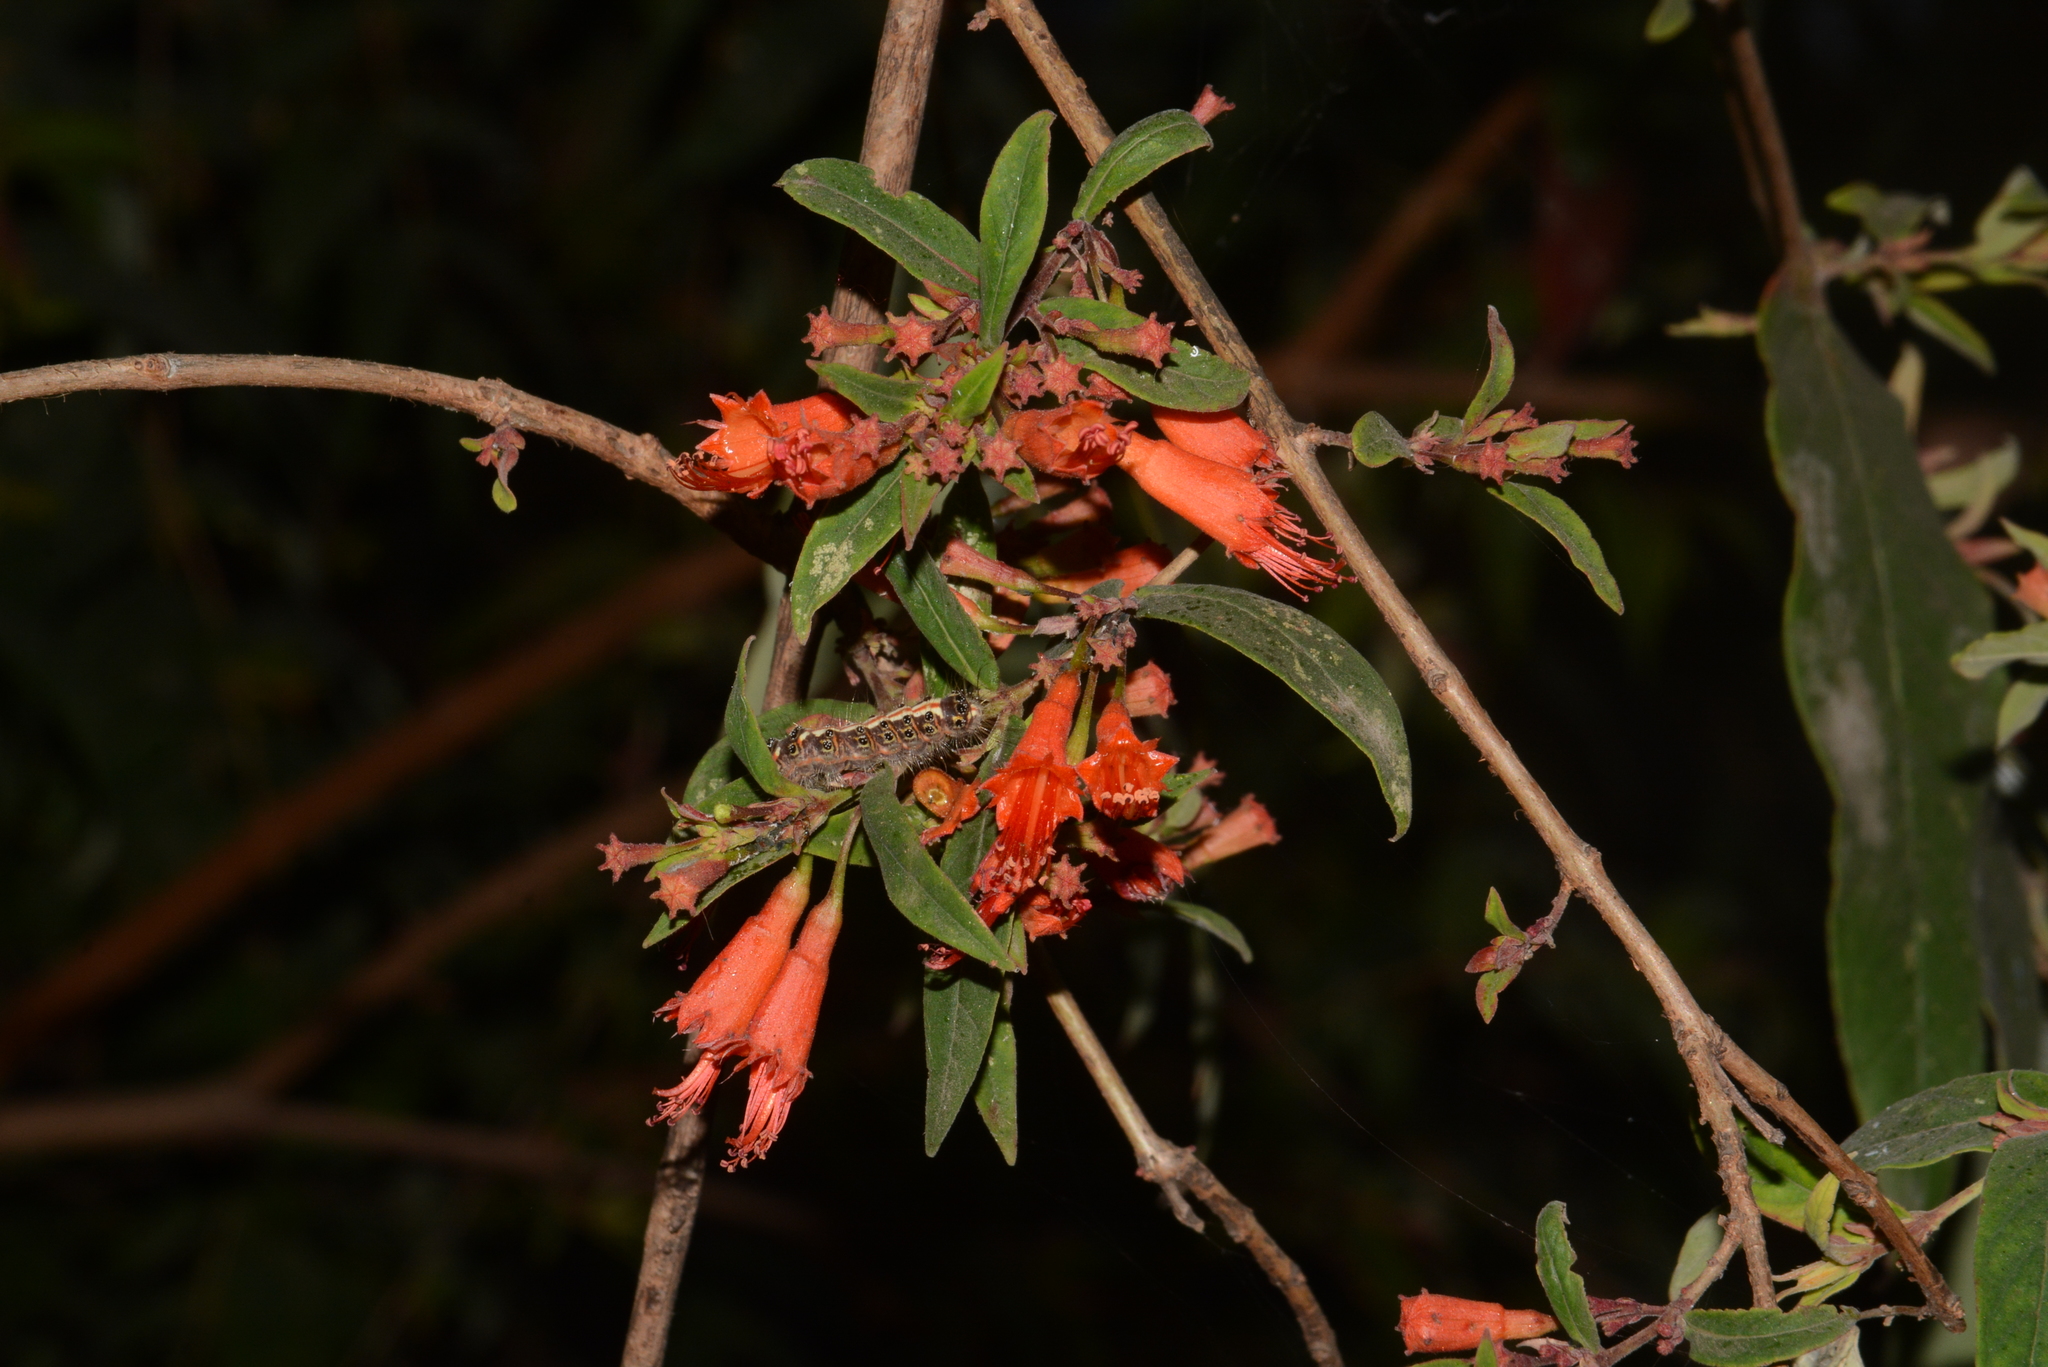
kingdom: Plantae
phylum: Tracheophyta
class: Magnoliopsida
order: Myrtales
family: Lythraceae
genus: Woodfordia
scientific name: Woodfordia fruticosa
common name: Shiranji-tea
